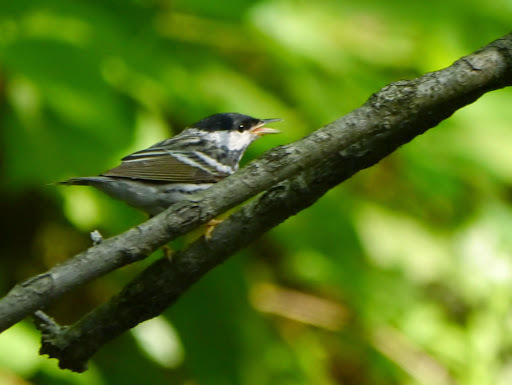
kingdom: Animalia
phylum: Chordata
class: Aves
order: Passeriformes
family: Parulidae
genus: Setophaga
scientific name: Setophaga striata
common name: Blackpoll warbler
